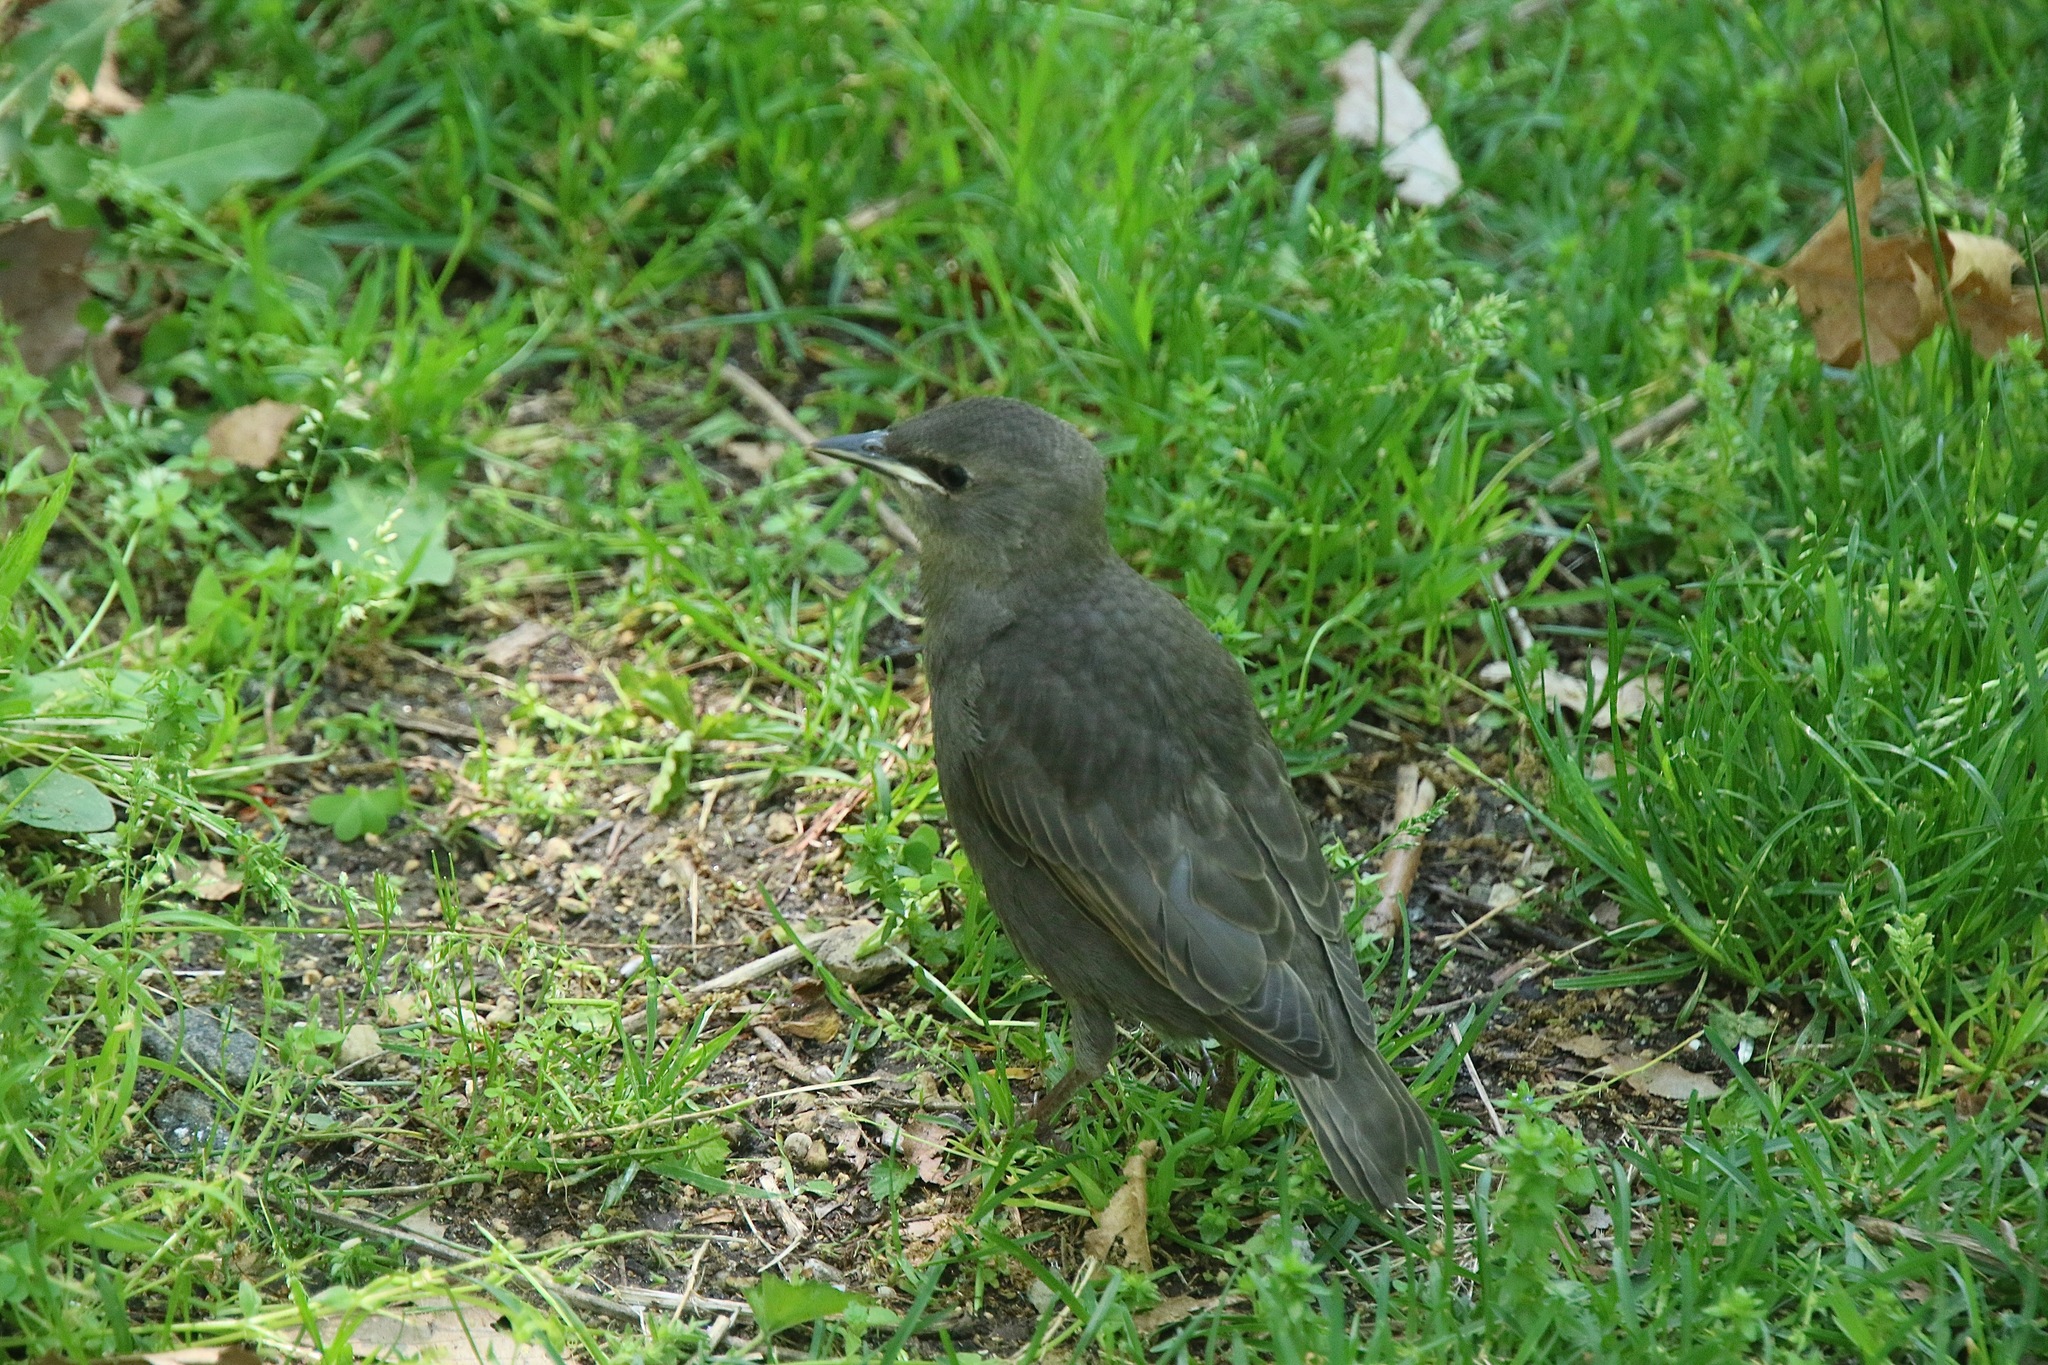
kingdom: Animalia
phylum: Chordata
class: Aves
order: Passeriformes
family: Sturnidae
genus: Sturnus
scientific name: Sturnus vulgaris
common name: Common starling
